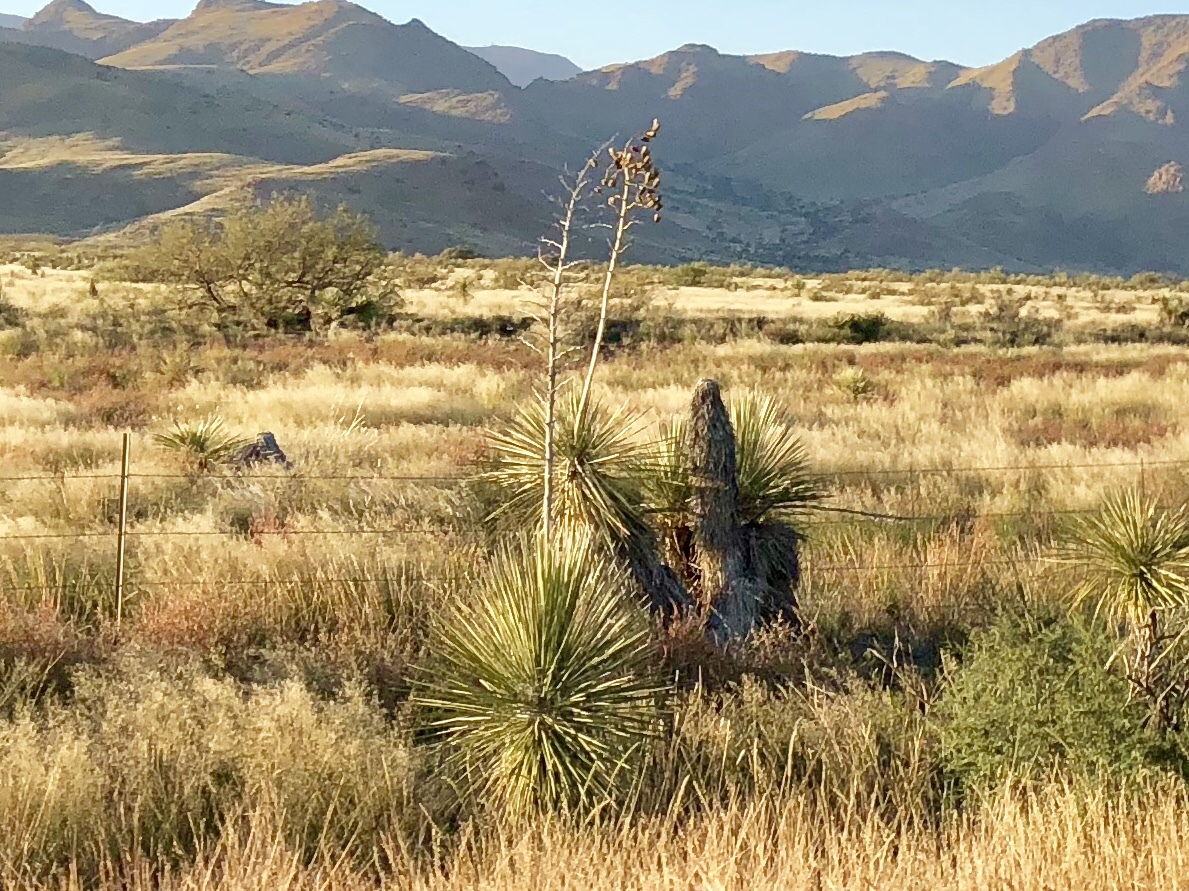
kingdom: Plantae
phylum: Tracheophyta
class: Liliopsida
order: Asparagales
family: Asparagaceae
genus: Yucca
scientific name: Yucca elata
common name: Palmella
